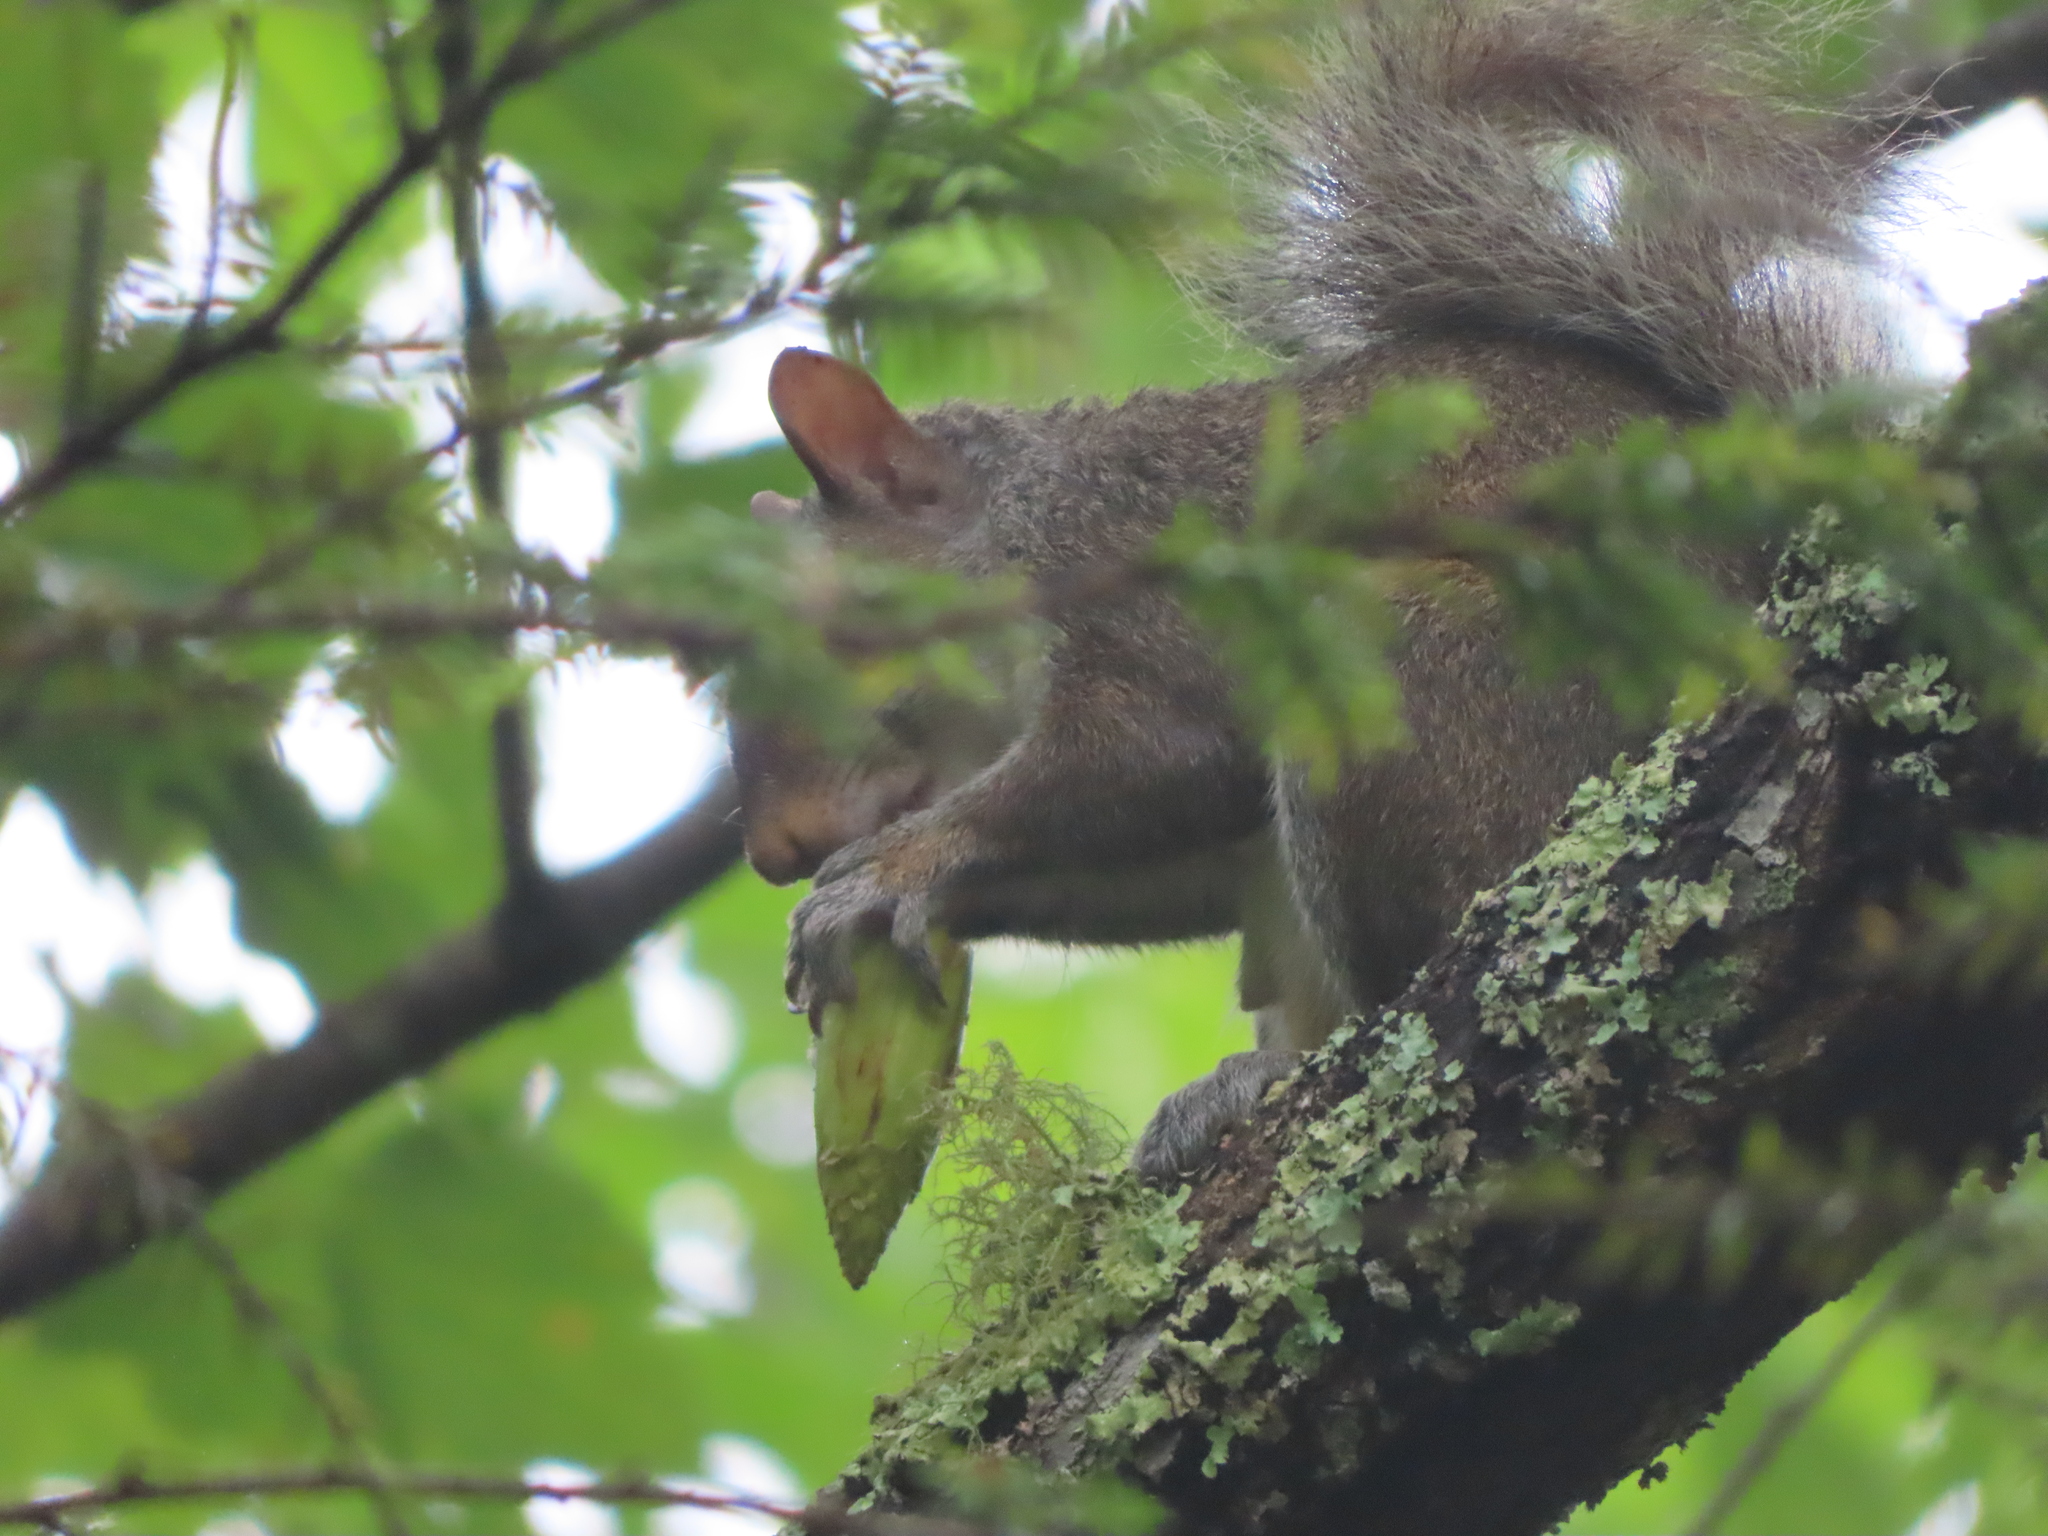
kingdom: Animalia
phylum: Chordata
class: Mammalia
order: Rodentia
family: Sciuridae
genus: Sciurus
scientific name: Sciurus carolinensis
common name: Eastern gray squirrel
